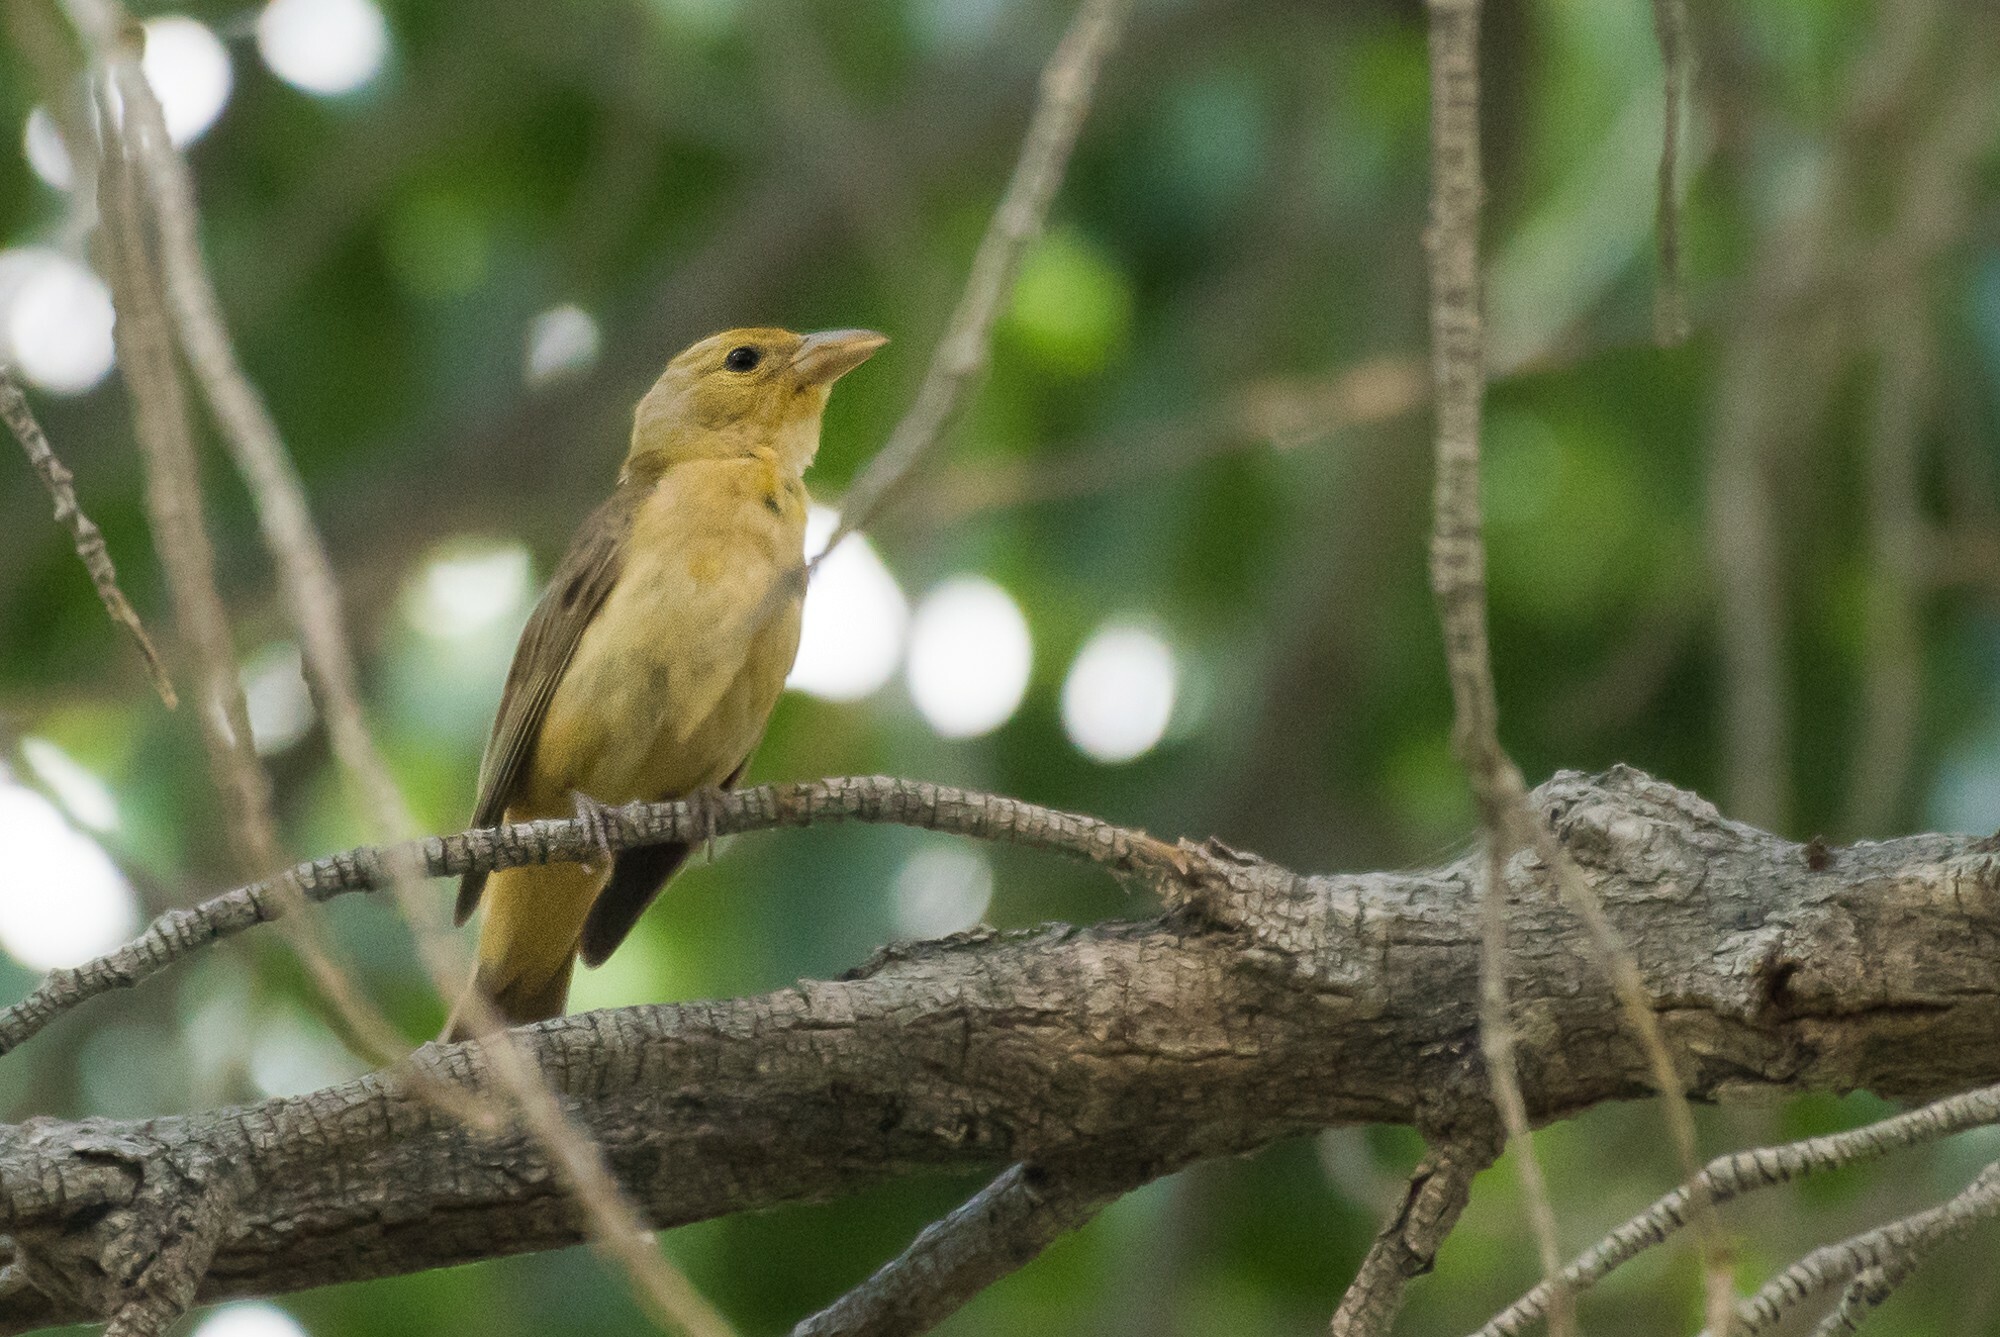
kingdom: Animalia
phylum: Chordata
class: Aves
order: Passeriformes
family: Cardinalidae
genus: Piranga
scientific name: Piranga rubra
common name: Summer tanager
